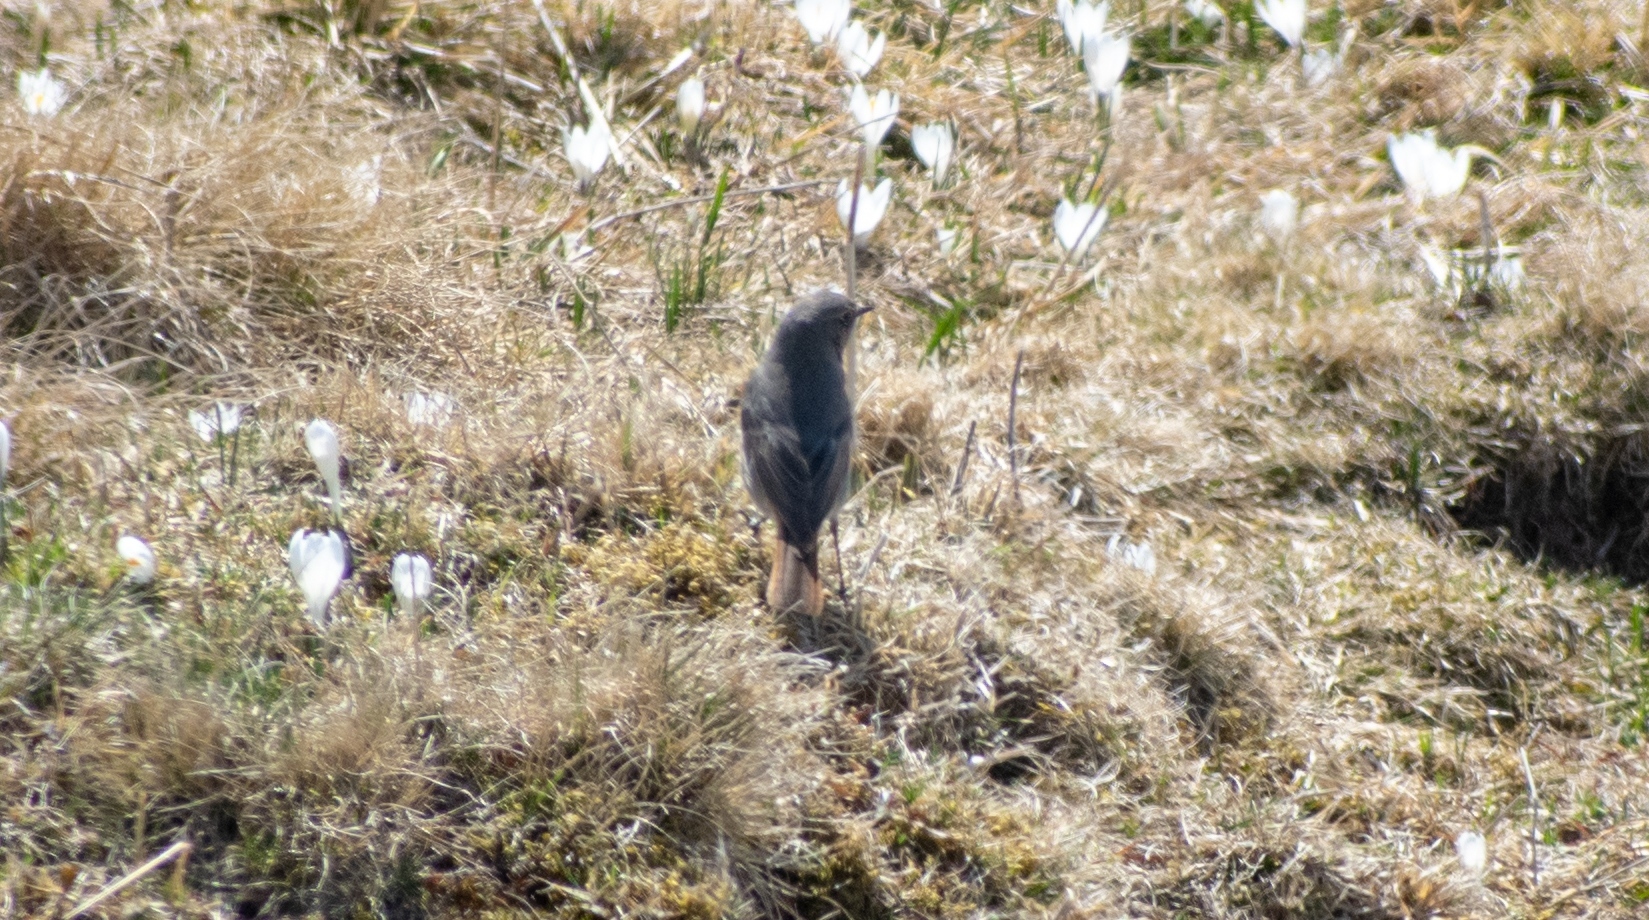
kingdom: Animalia
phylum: Chordata
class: Aves
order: Passeriformes
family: Muscicapidae
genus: Phoenicurus
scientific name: Phoenicurus ochruros
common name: Black redstart
